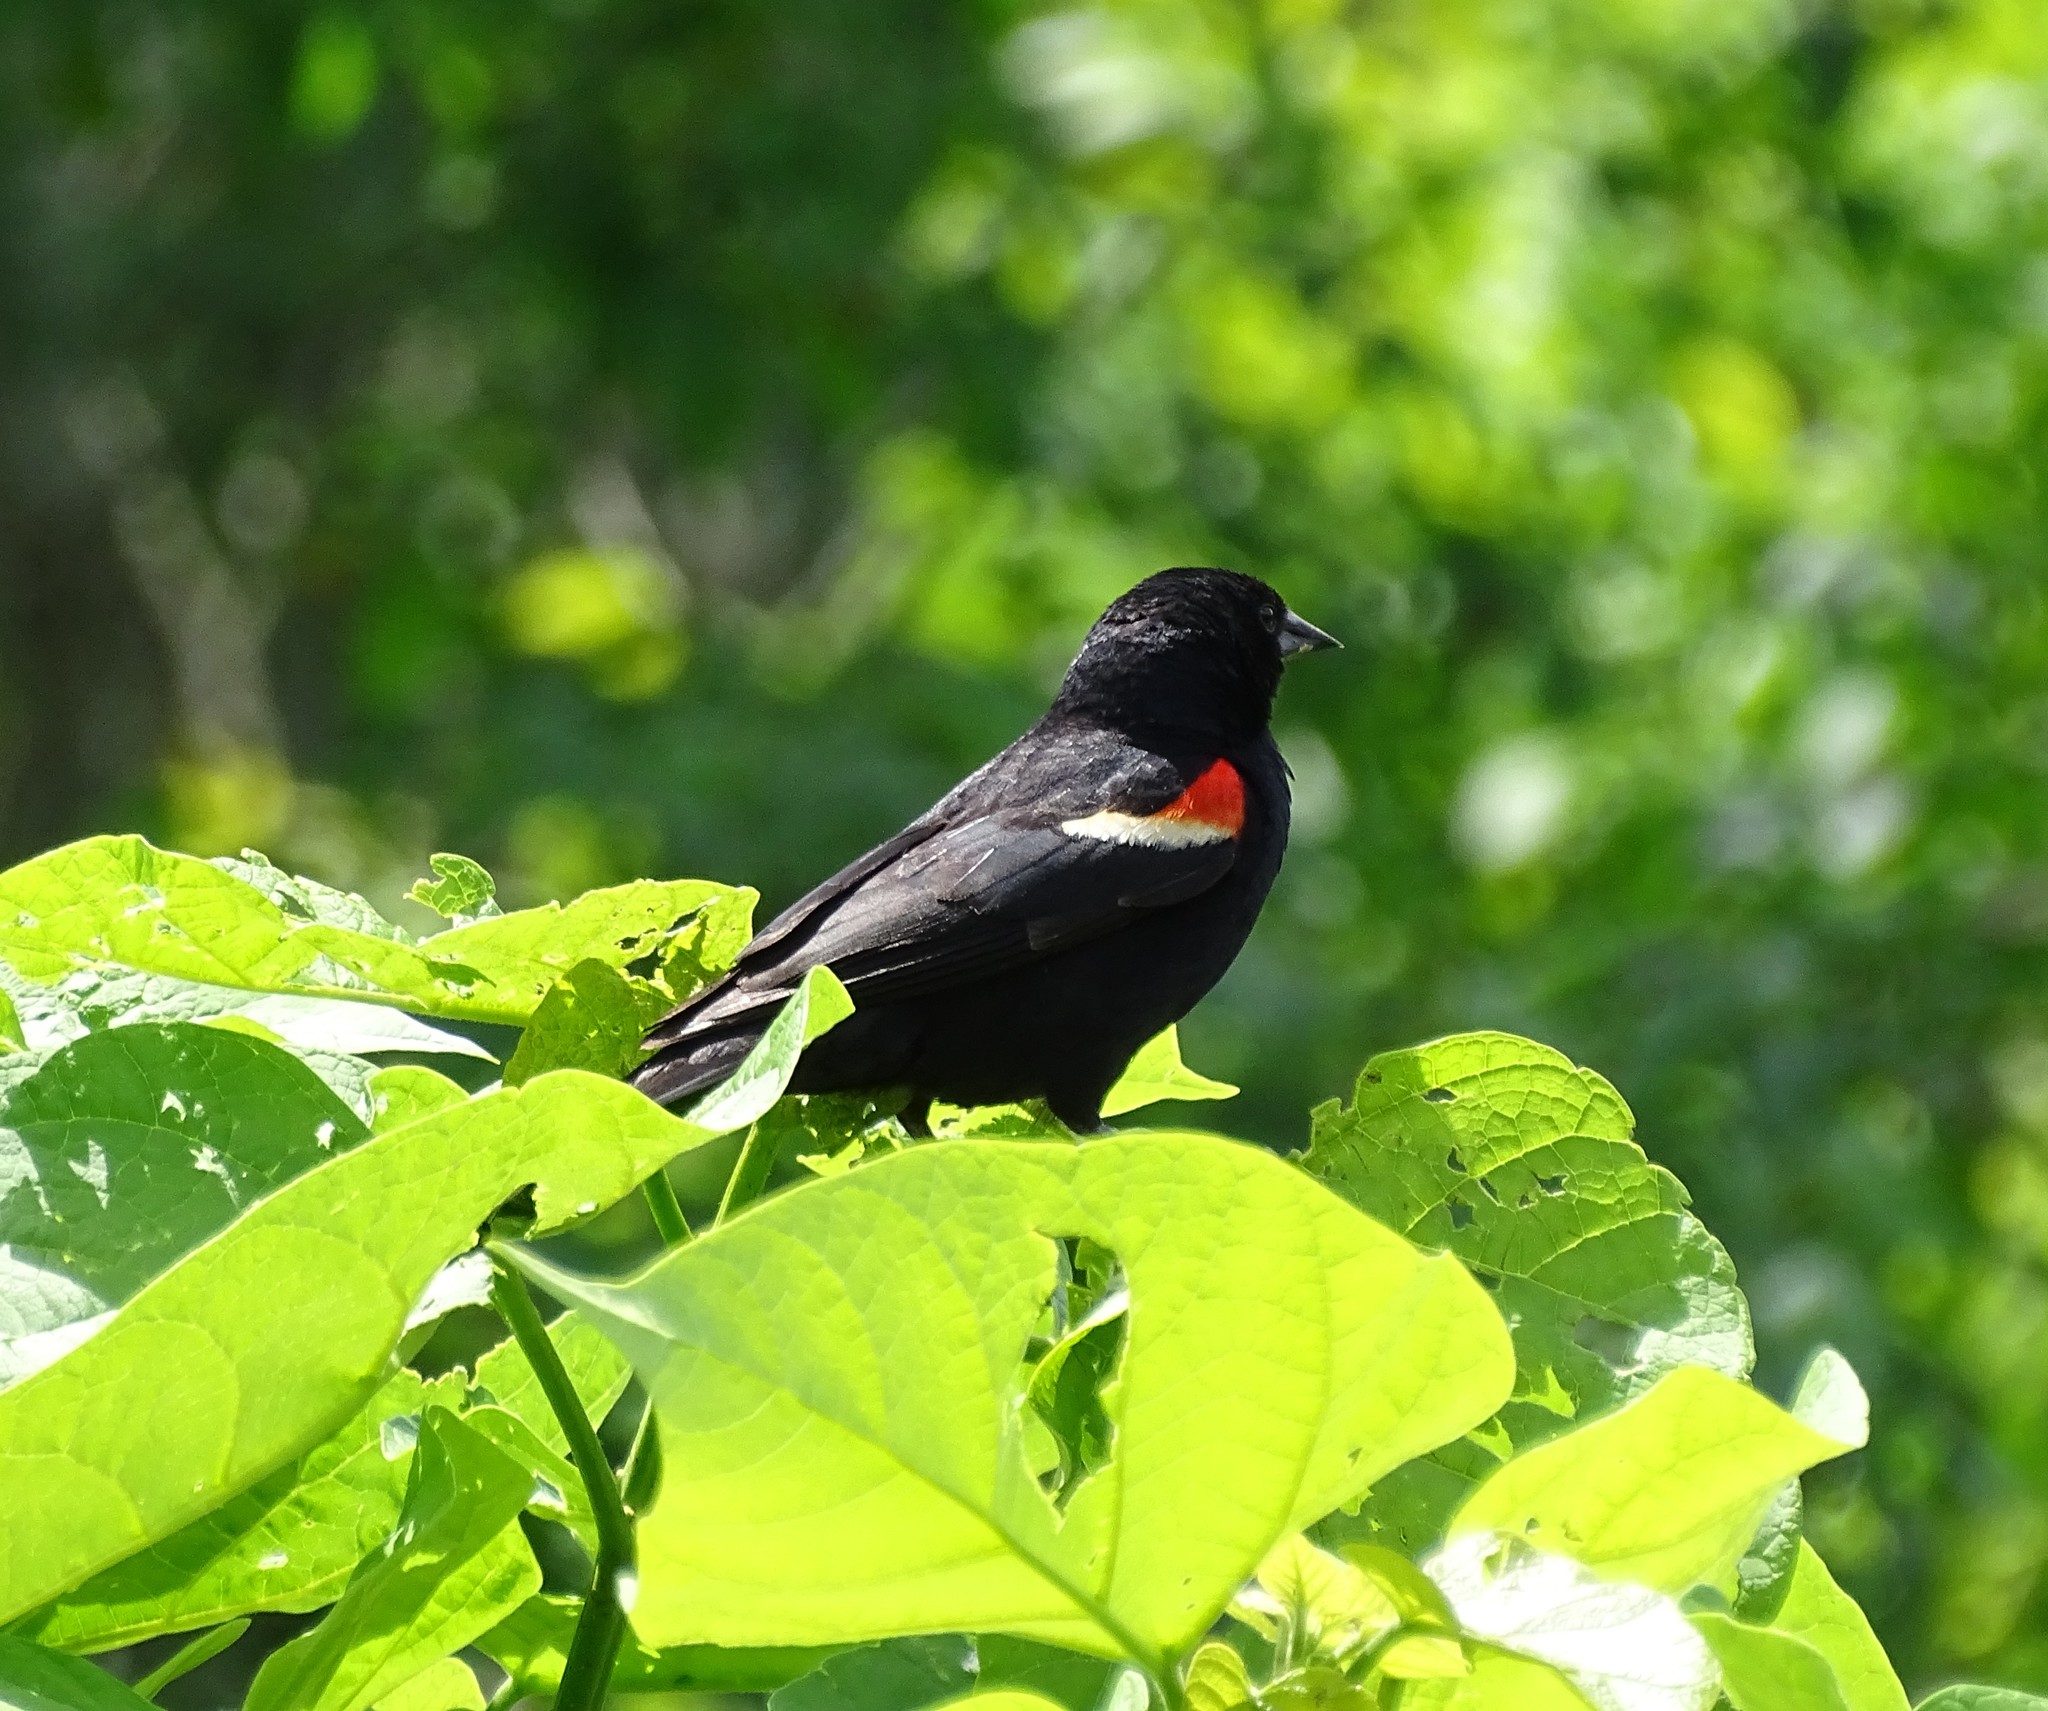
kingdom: Animalia
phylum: Chordata
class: Aves
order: Passeriformes
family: Icteridae
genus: Agelaius
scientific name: Agelaius phoeniceus
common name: Red-winged blackbird
